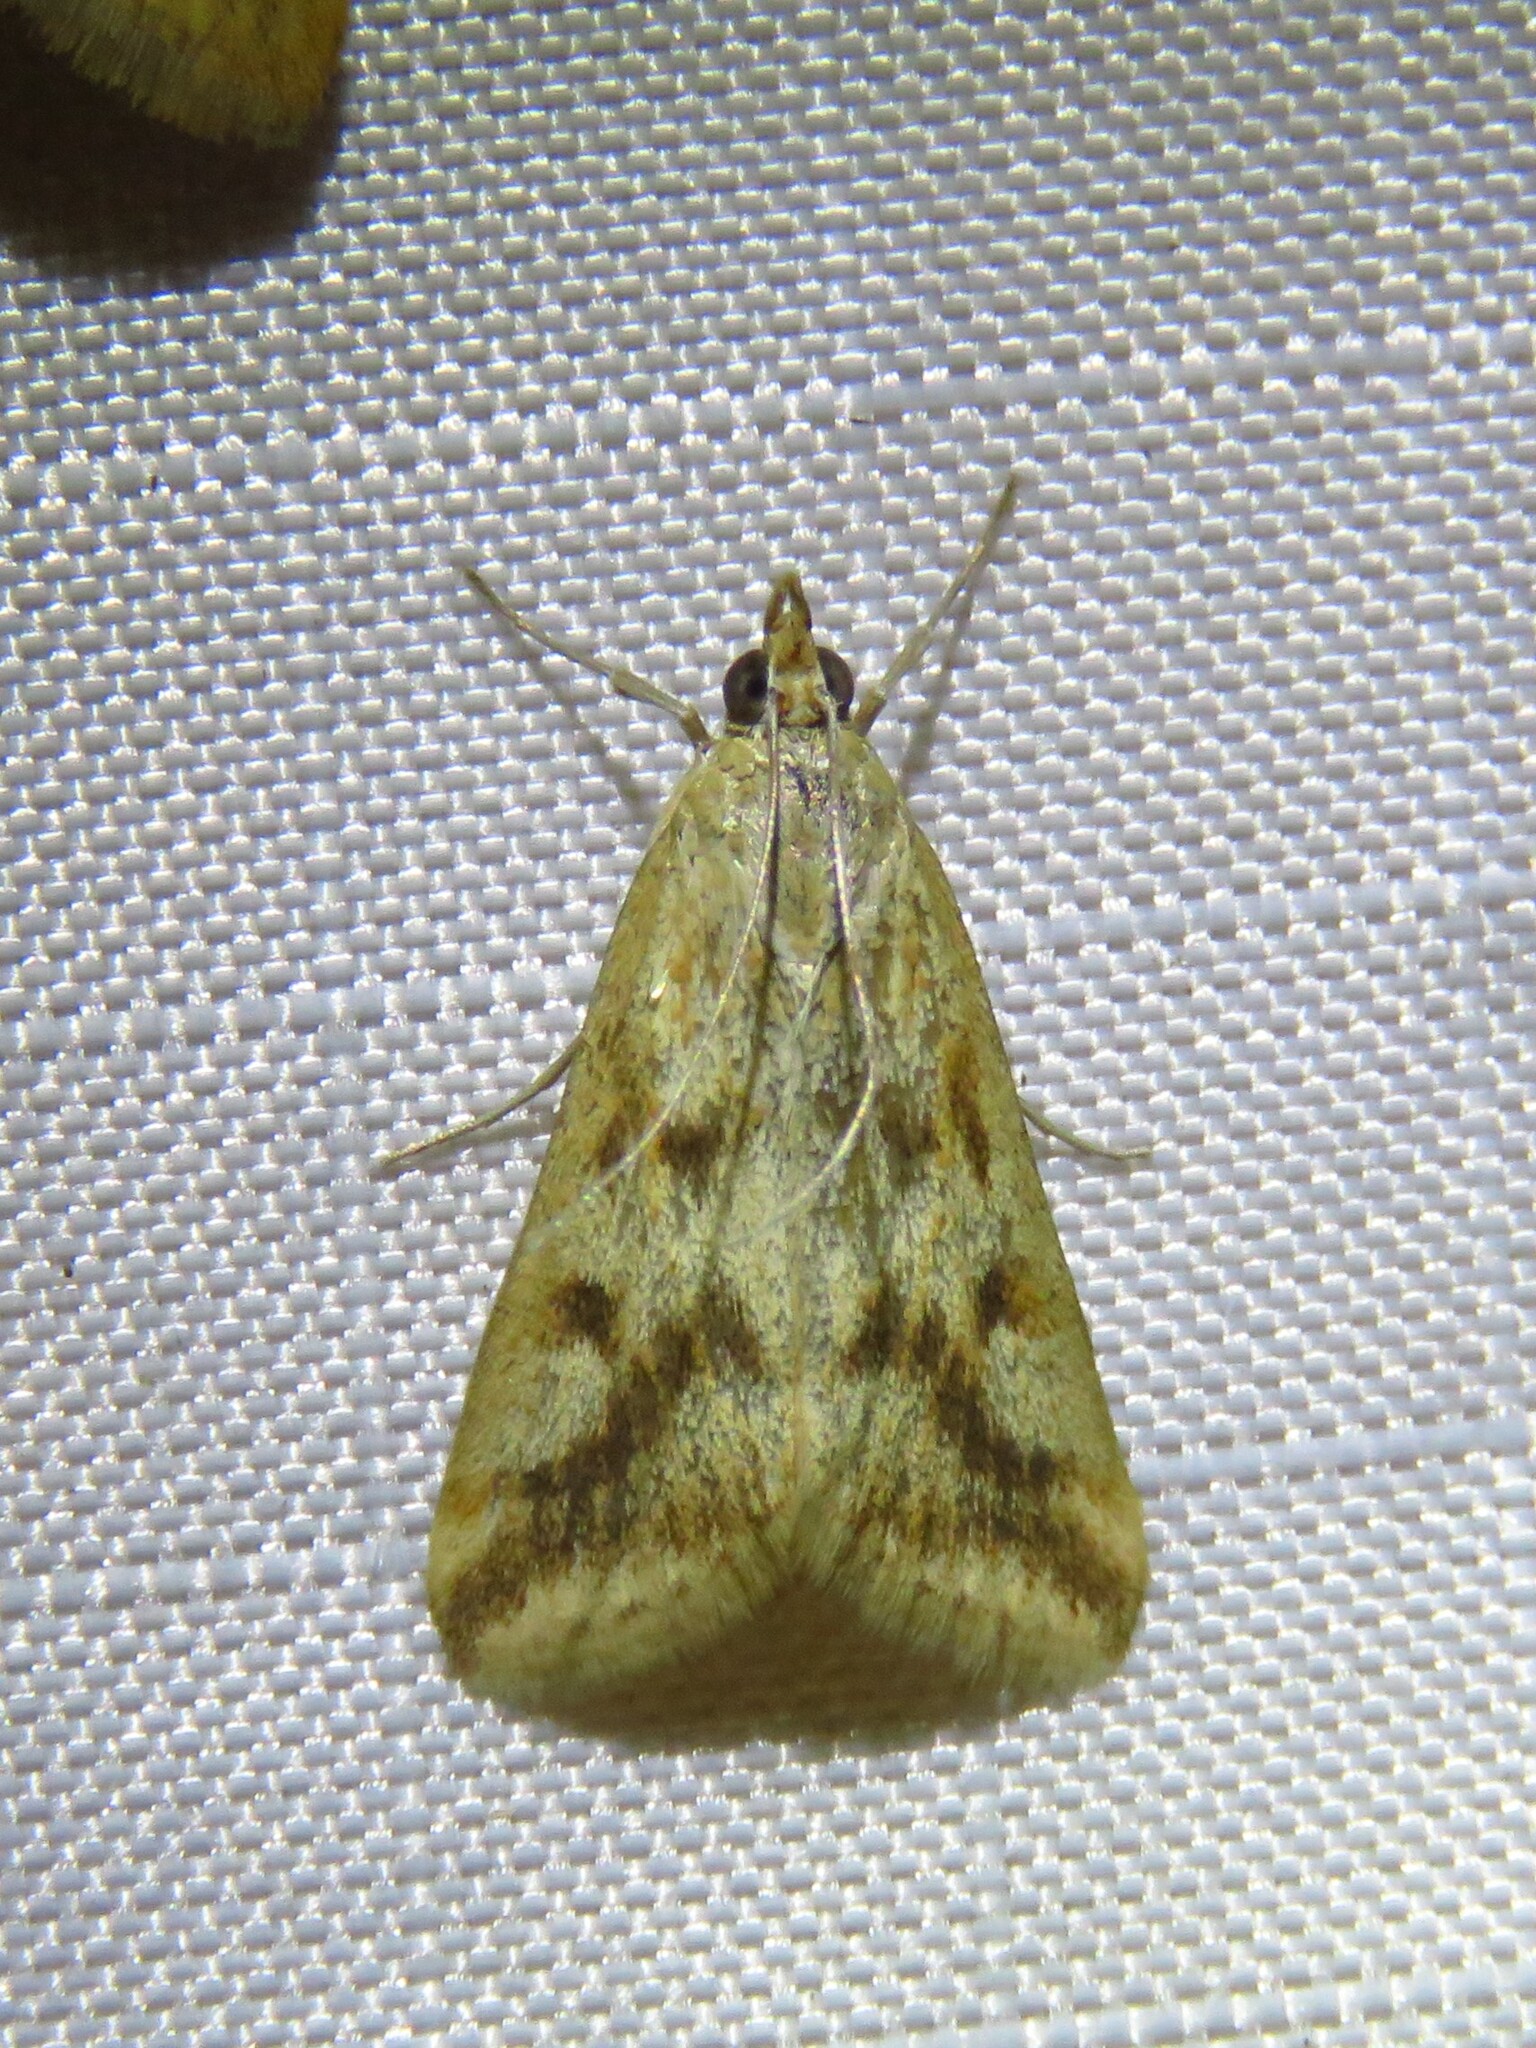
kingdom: Animalia
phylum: Arthropoda
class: Insecta
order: Lepidoptera
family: Crambidae
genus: Achyra
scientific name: Achyra bifidalis
